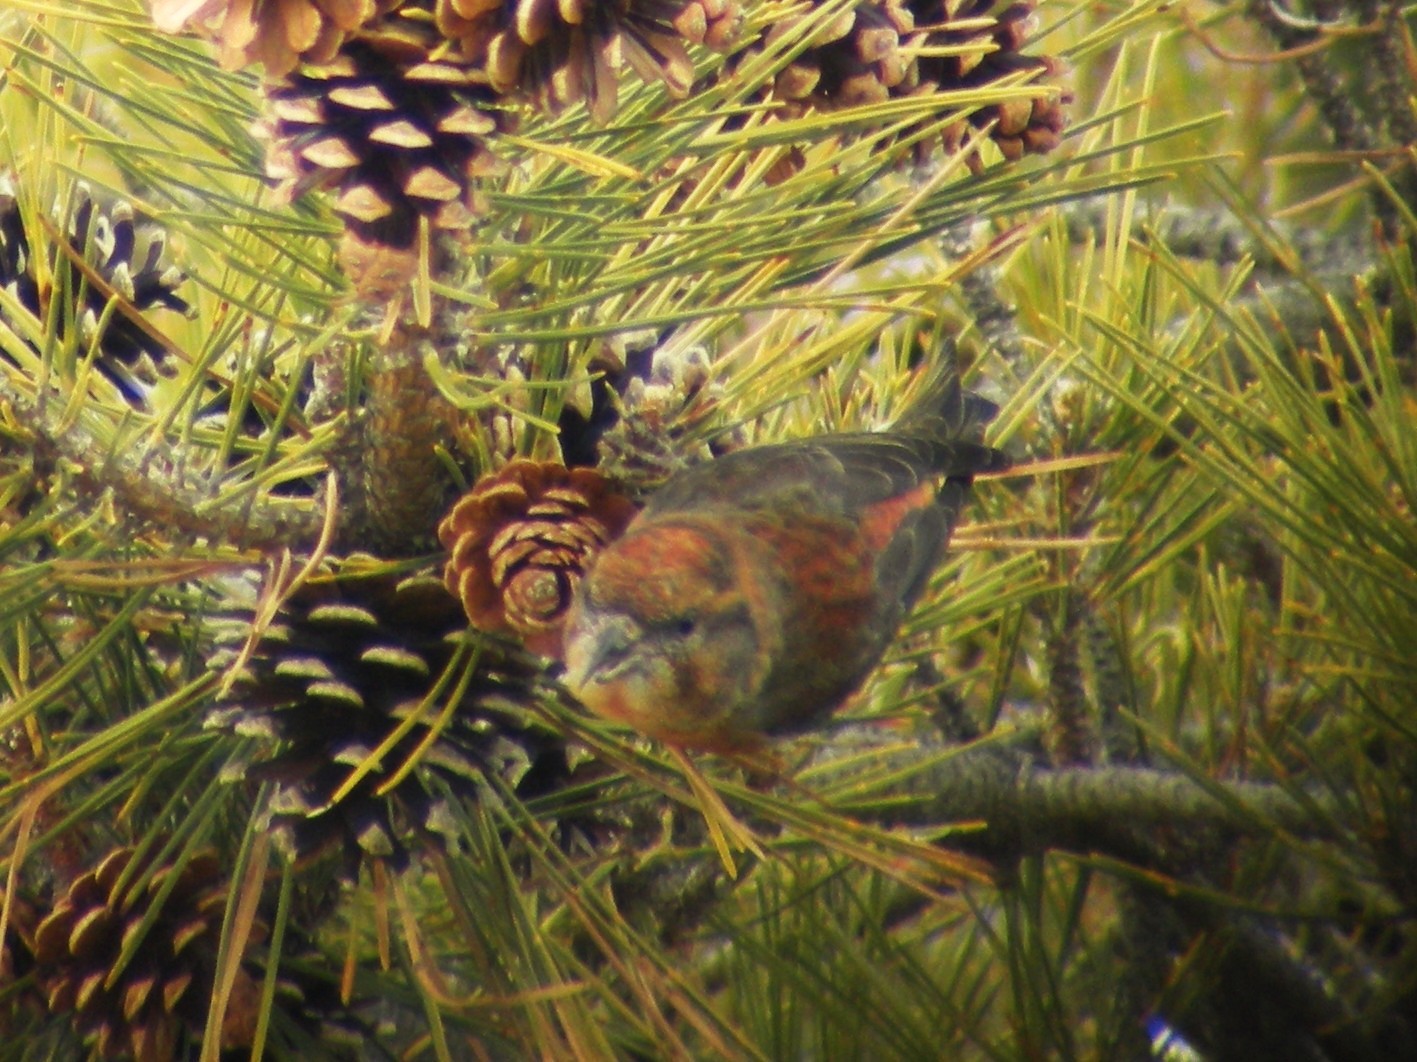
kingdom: Animalia
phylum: Chordata
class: Aves
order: Passeriformes
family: Fringillidae
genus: Loxia
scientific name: Loxia curvirostra
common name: Red crossbill
